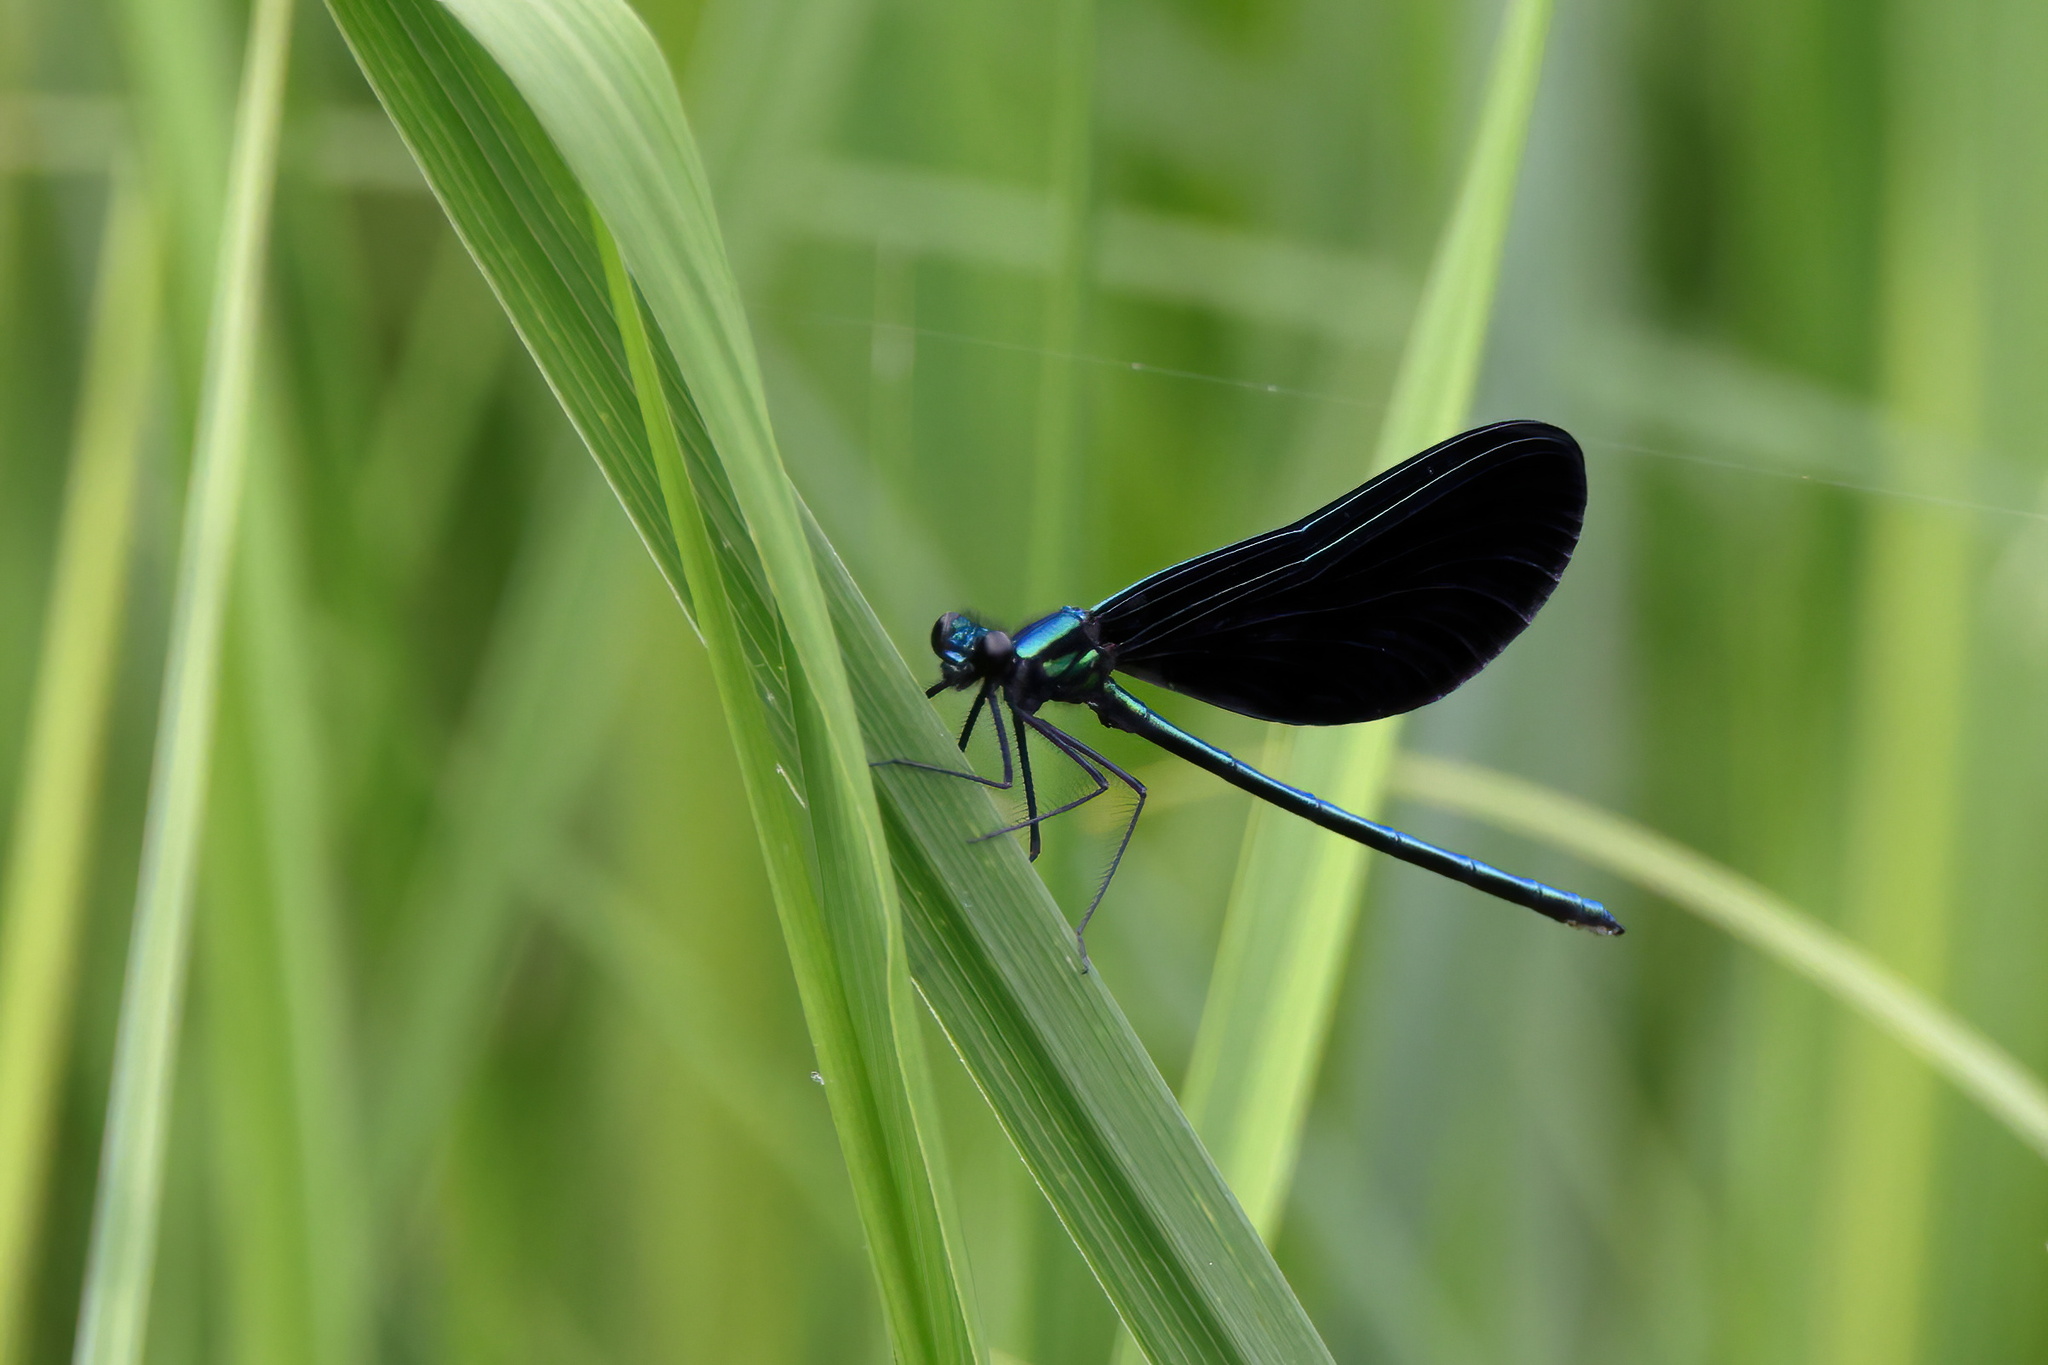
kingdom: Animalia
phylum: Arthropoda
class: Insecta
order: Odonata
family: Calopterygidae
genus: Calopteryx
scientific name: Calopteryx maculata
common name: Ebony jewelwing
